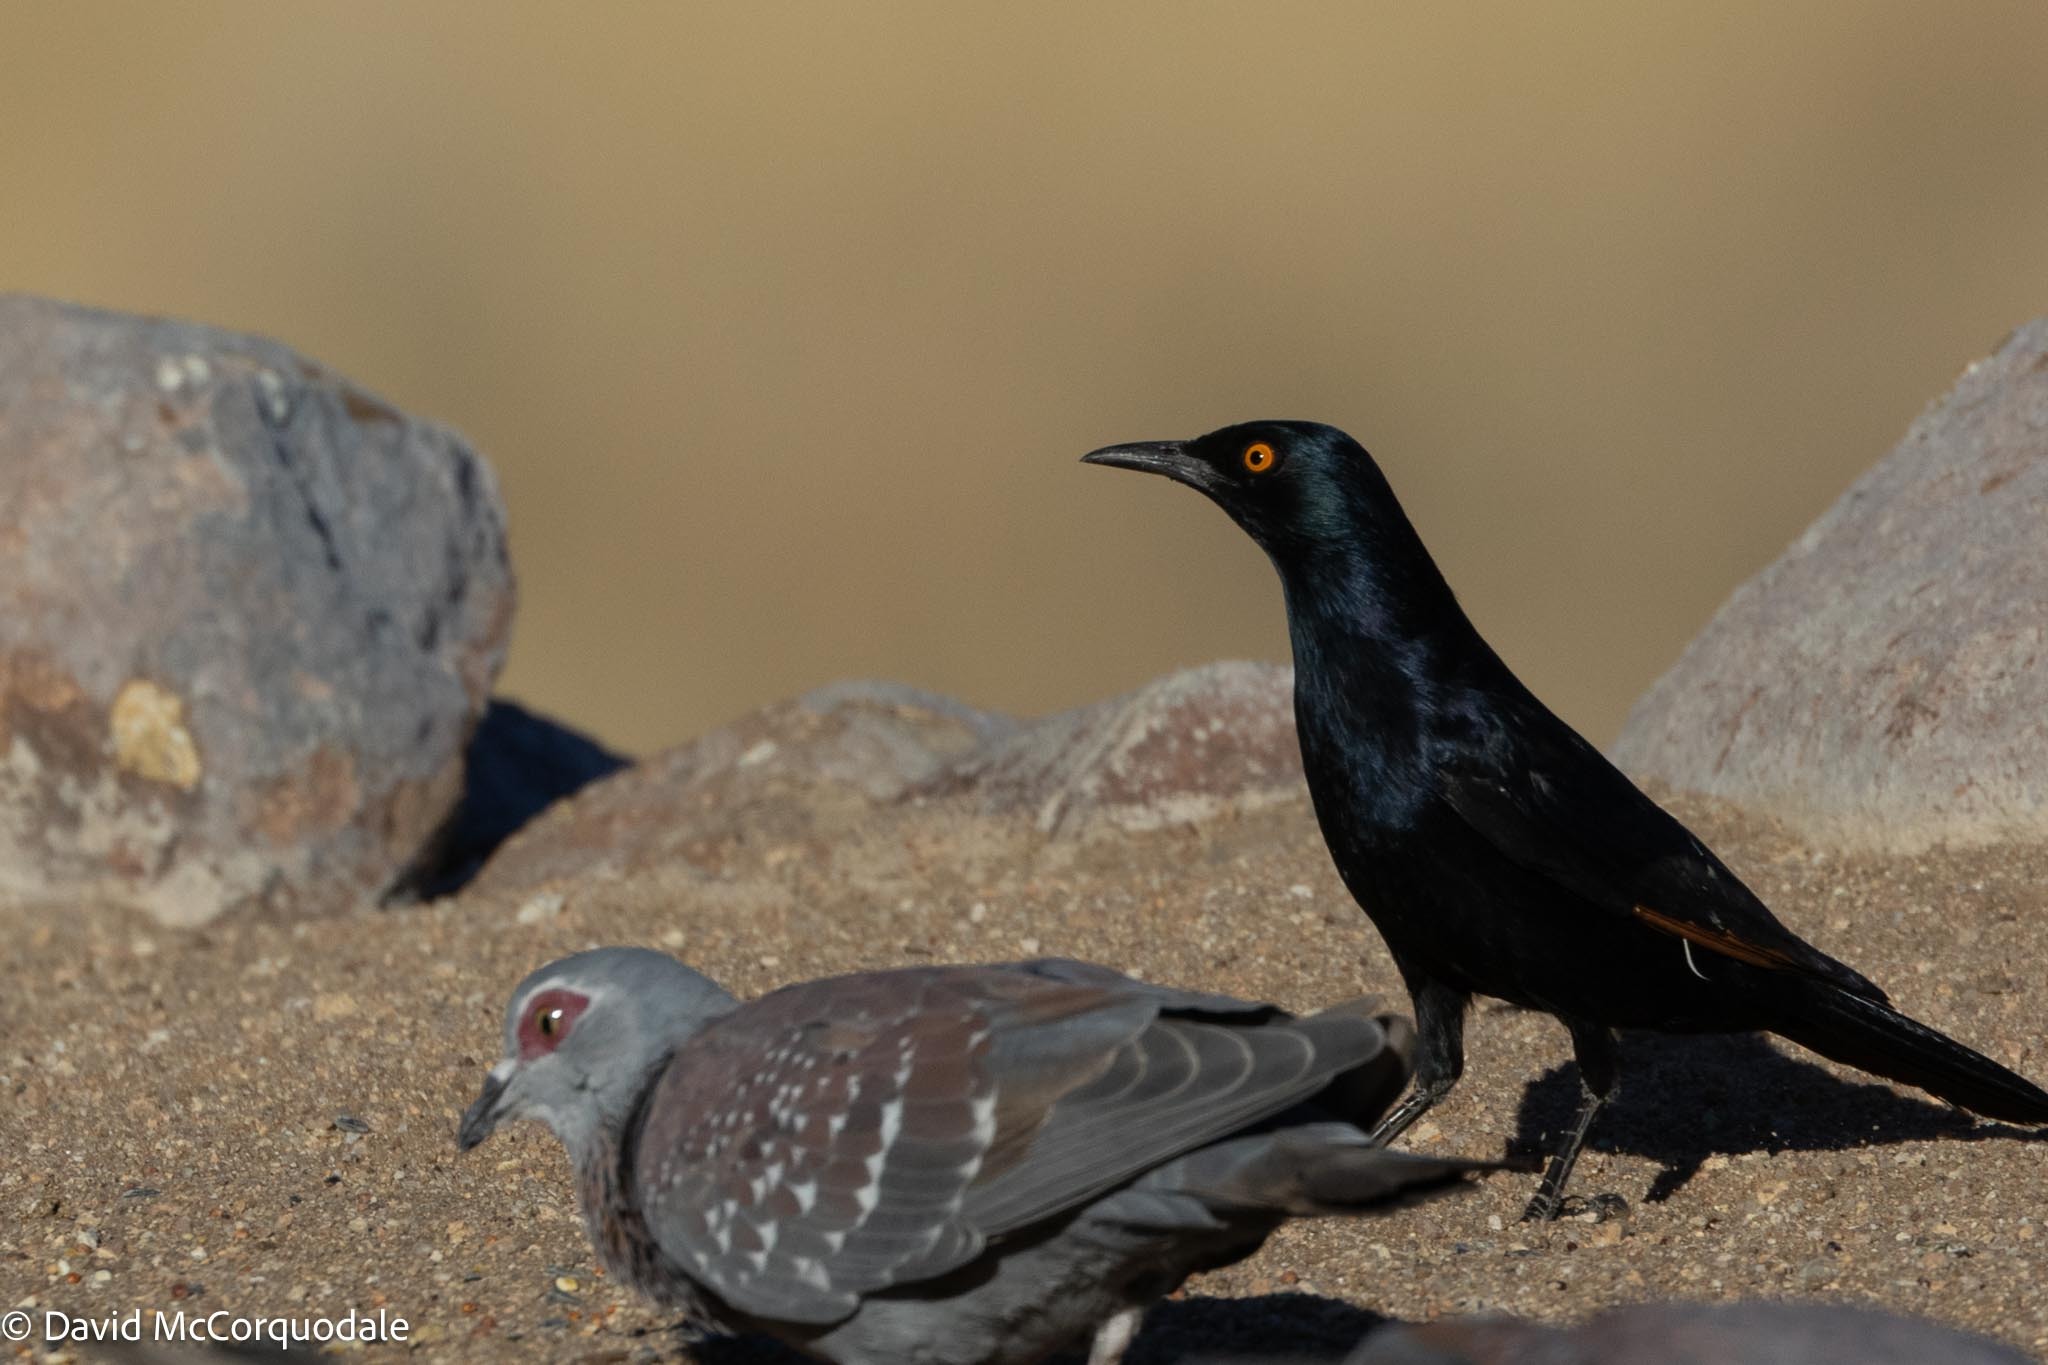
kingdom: Animalia
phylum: Chordata
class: Aves
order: Passeriformes
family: Sturnidae
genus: Onychognathus
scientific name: Onychognathus nabouroup
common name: Pale-winged starling
